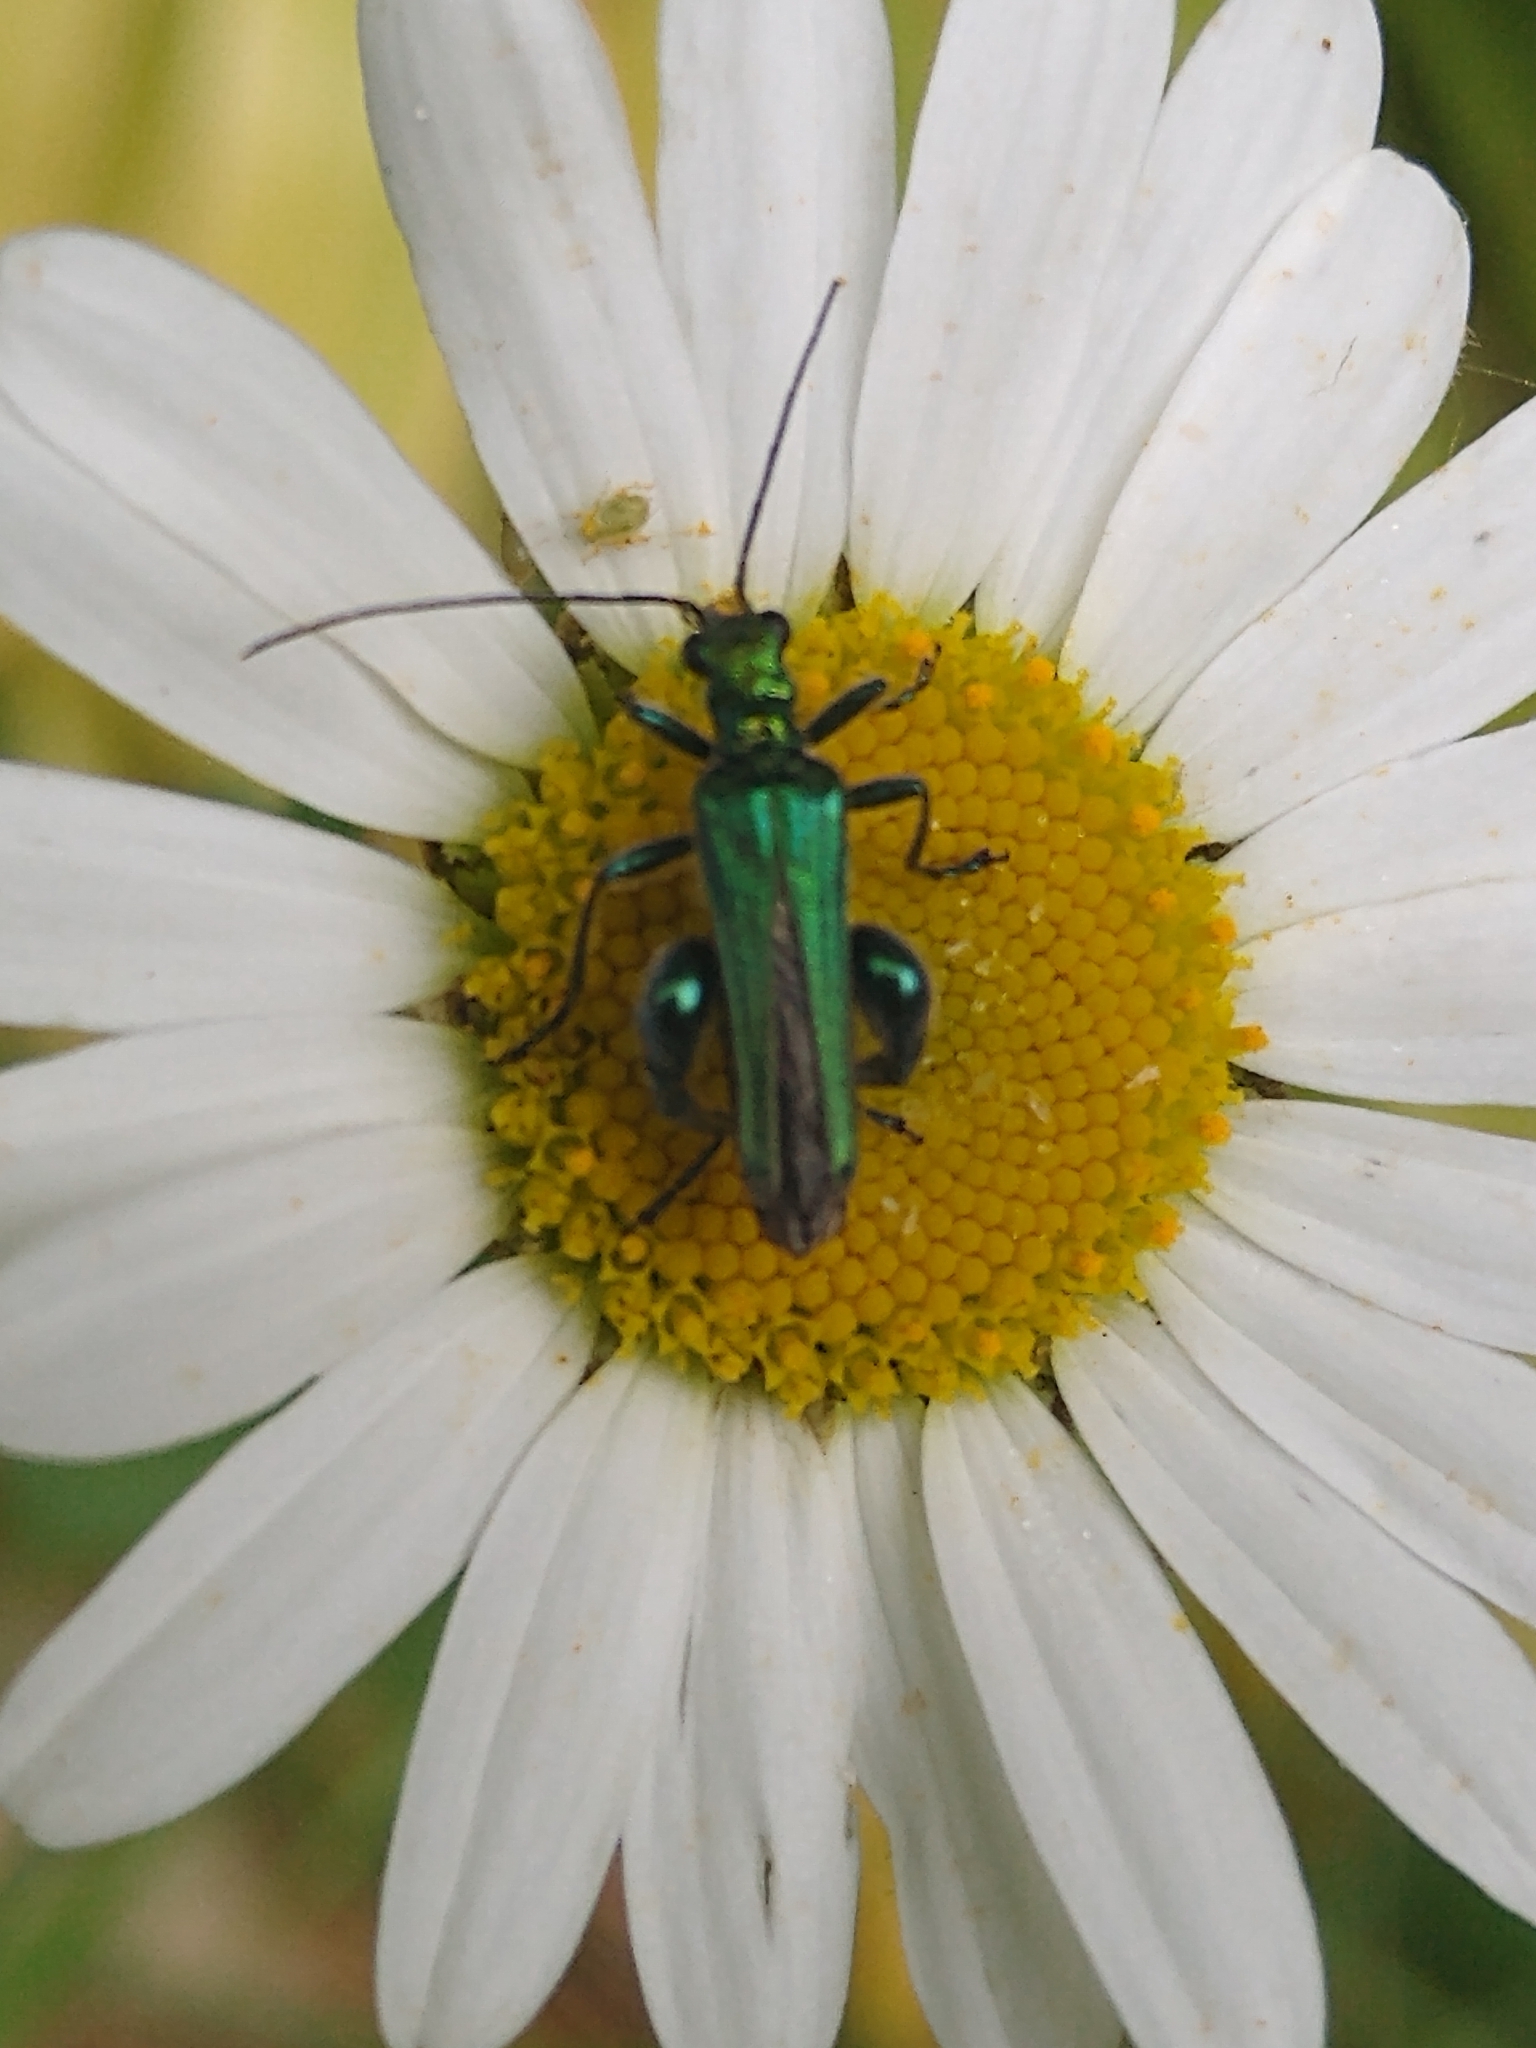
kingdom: Animalia
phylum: Arthropoda
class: Insecta
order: Coleoptera
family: Oedemeridae
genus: Oedemera
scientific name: Oedemera nobilis
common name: Swollen-thighed beetle
